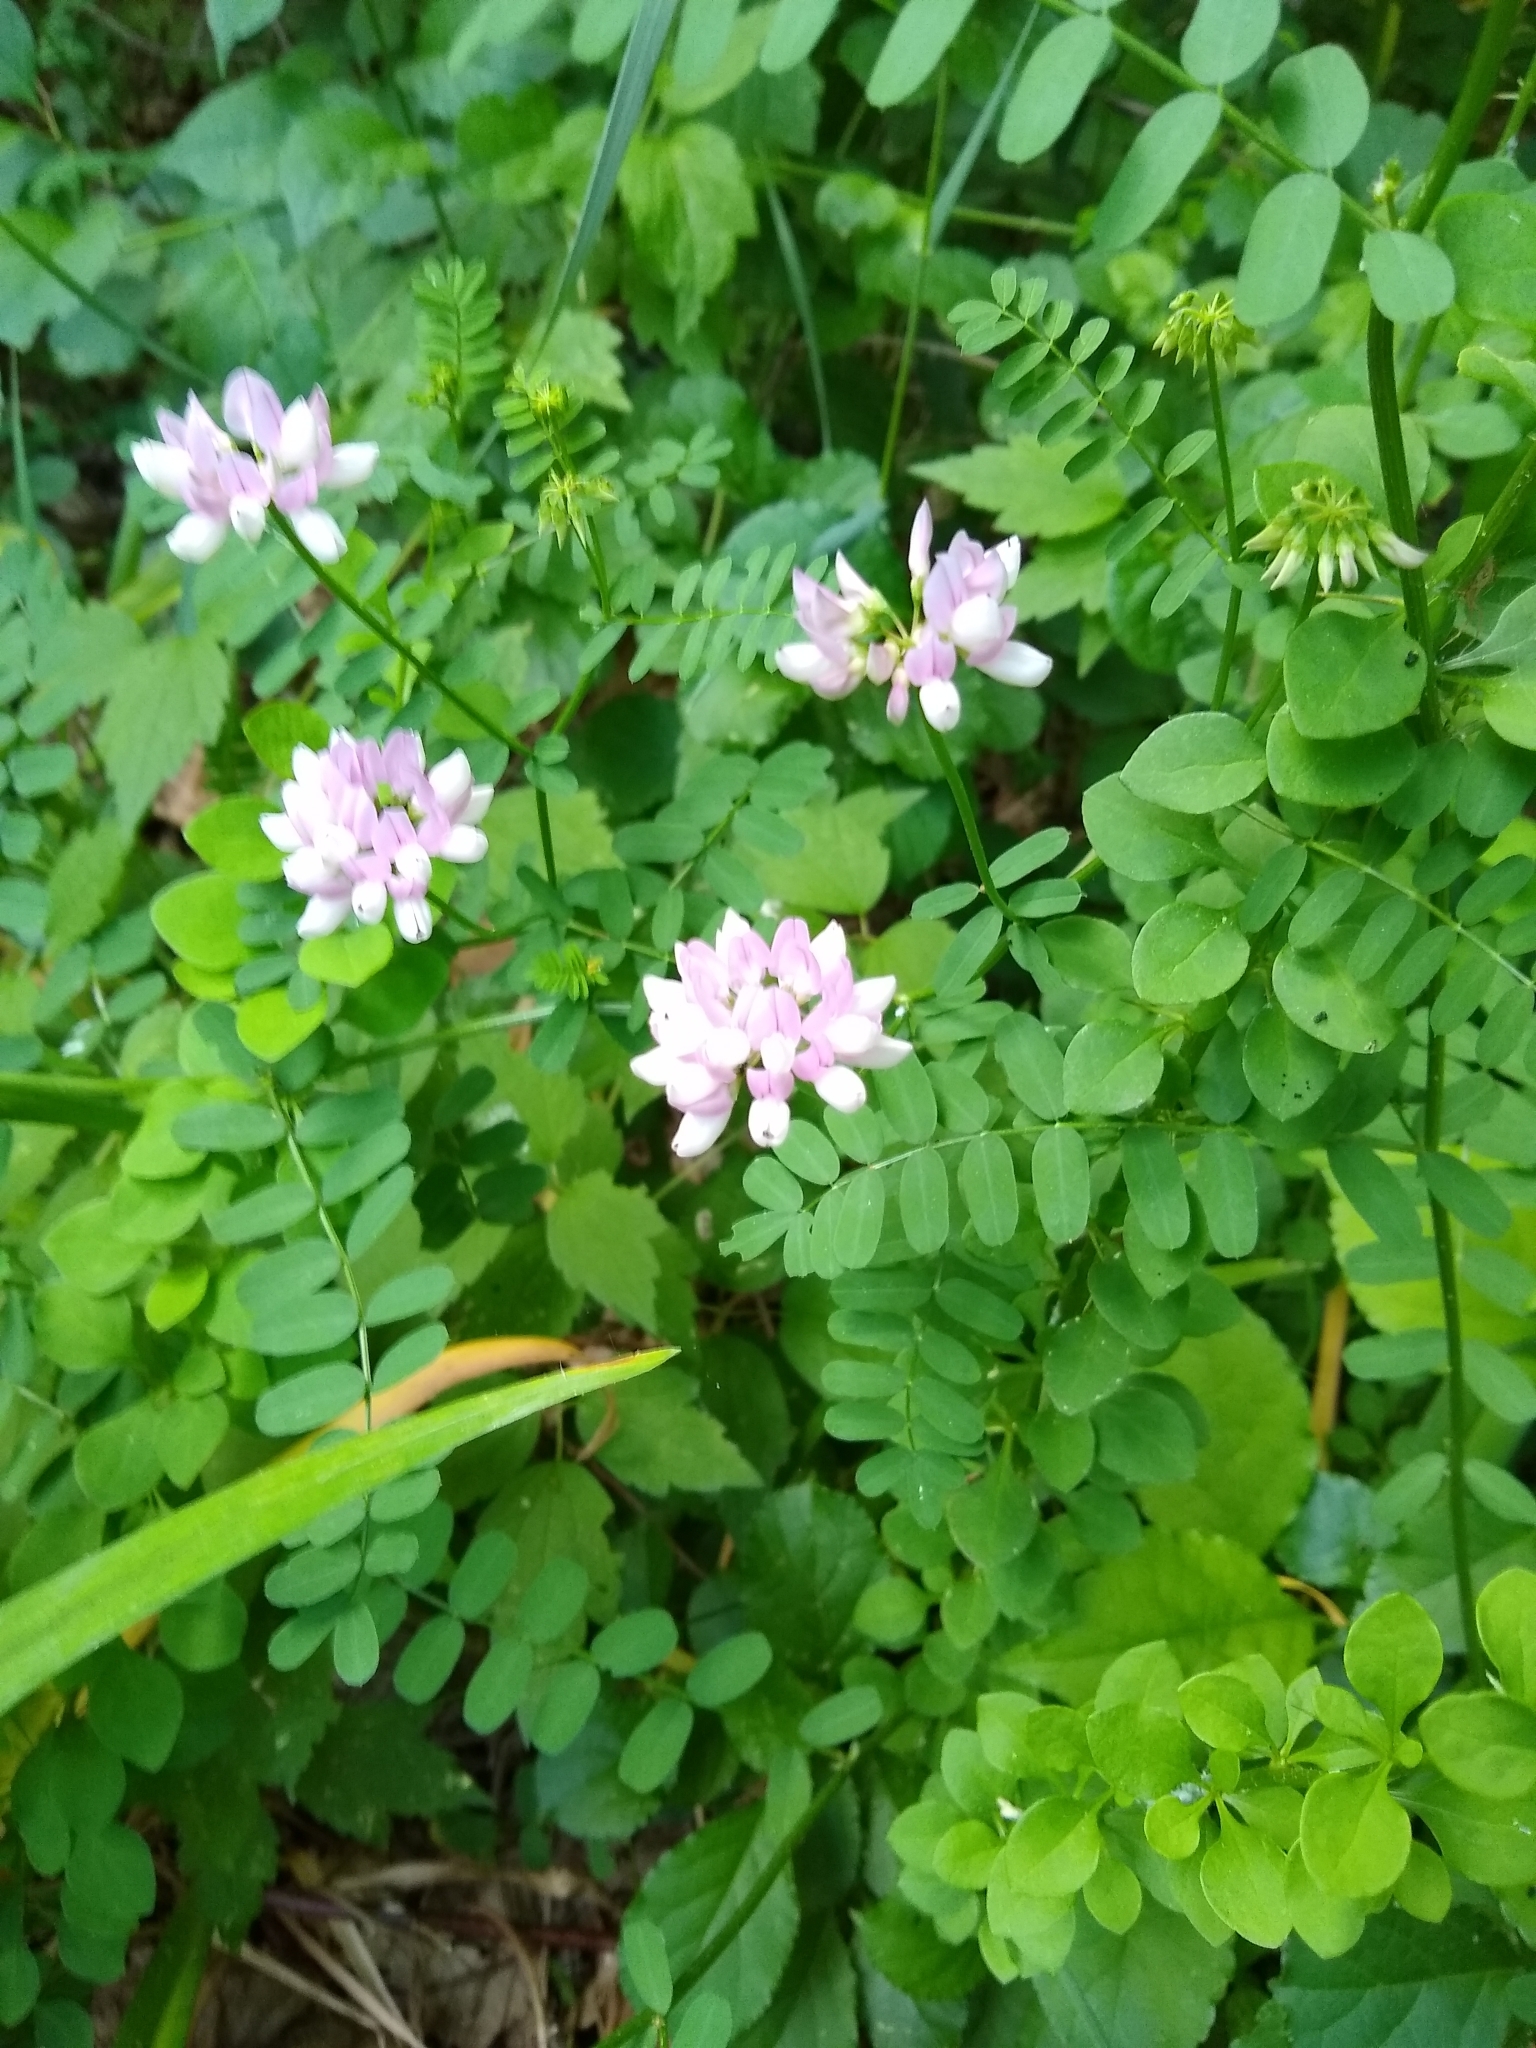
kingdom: Plantae
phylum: Tracheophyta
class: Magnoliopsida
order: Fabales
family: Fabaceae
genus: Coronilla
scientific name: Coronilla varia
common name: Crownvetch
